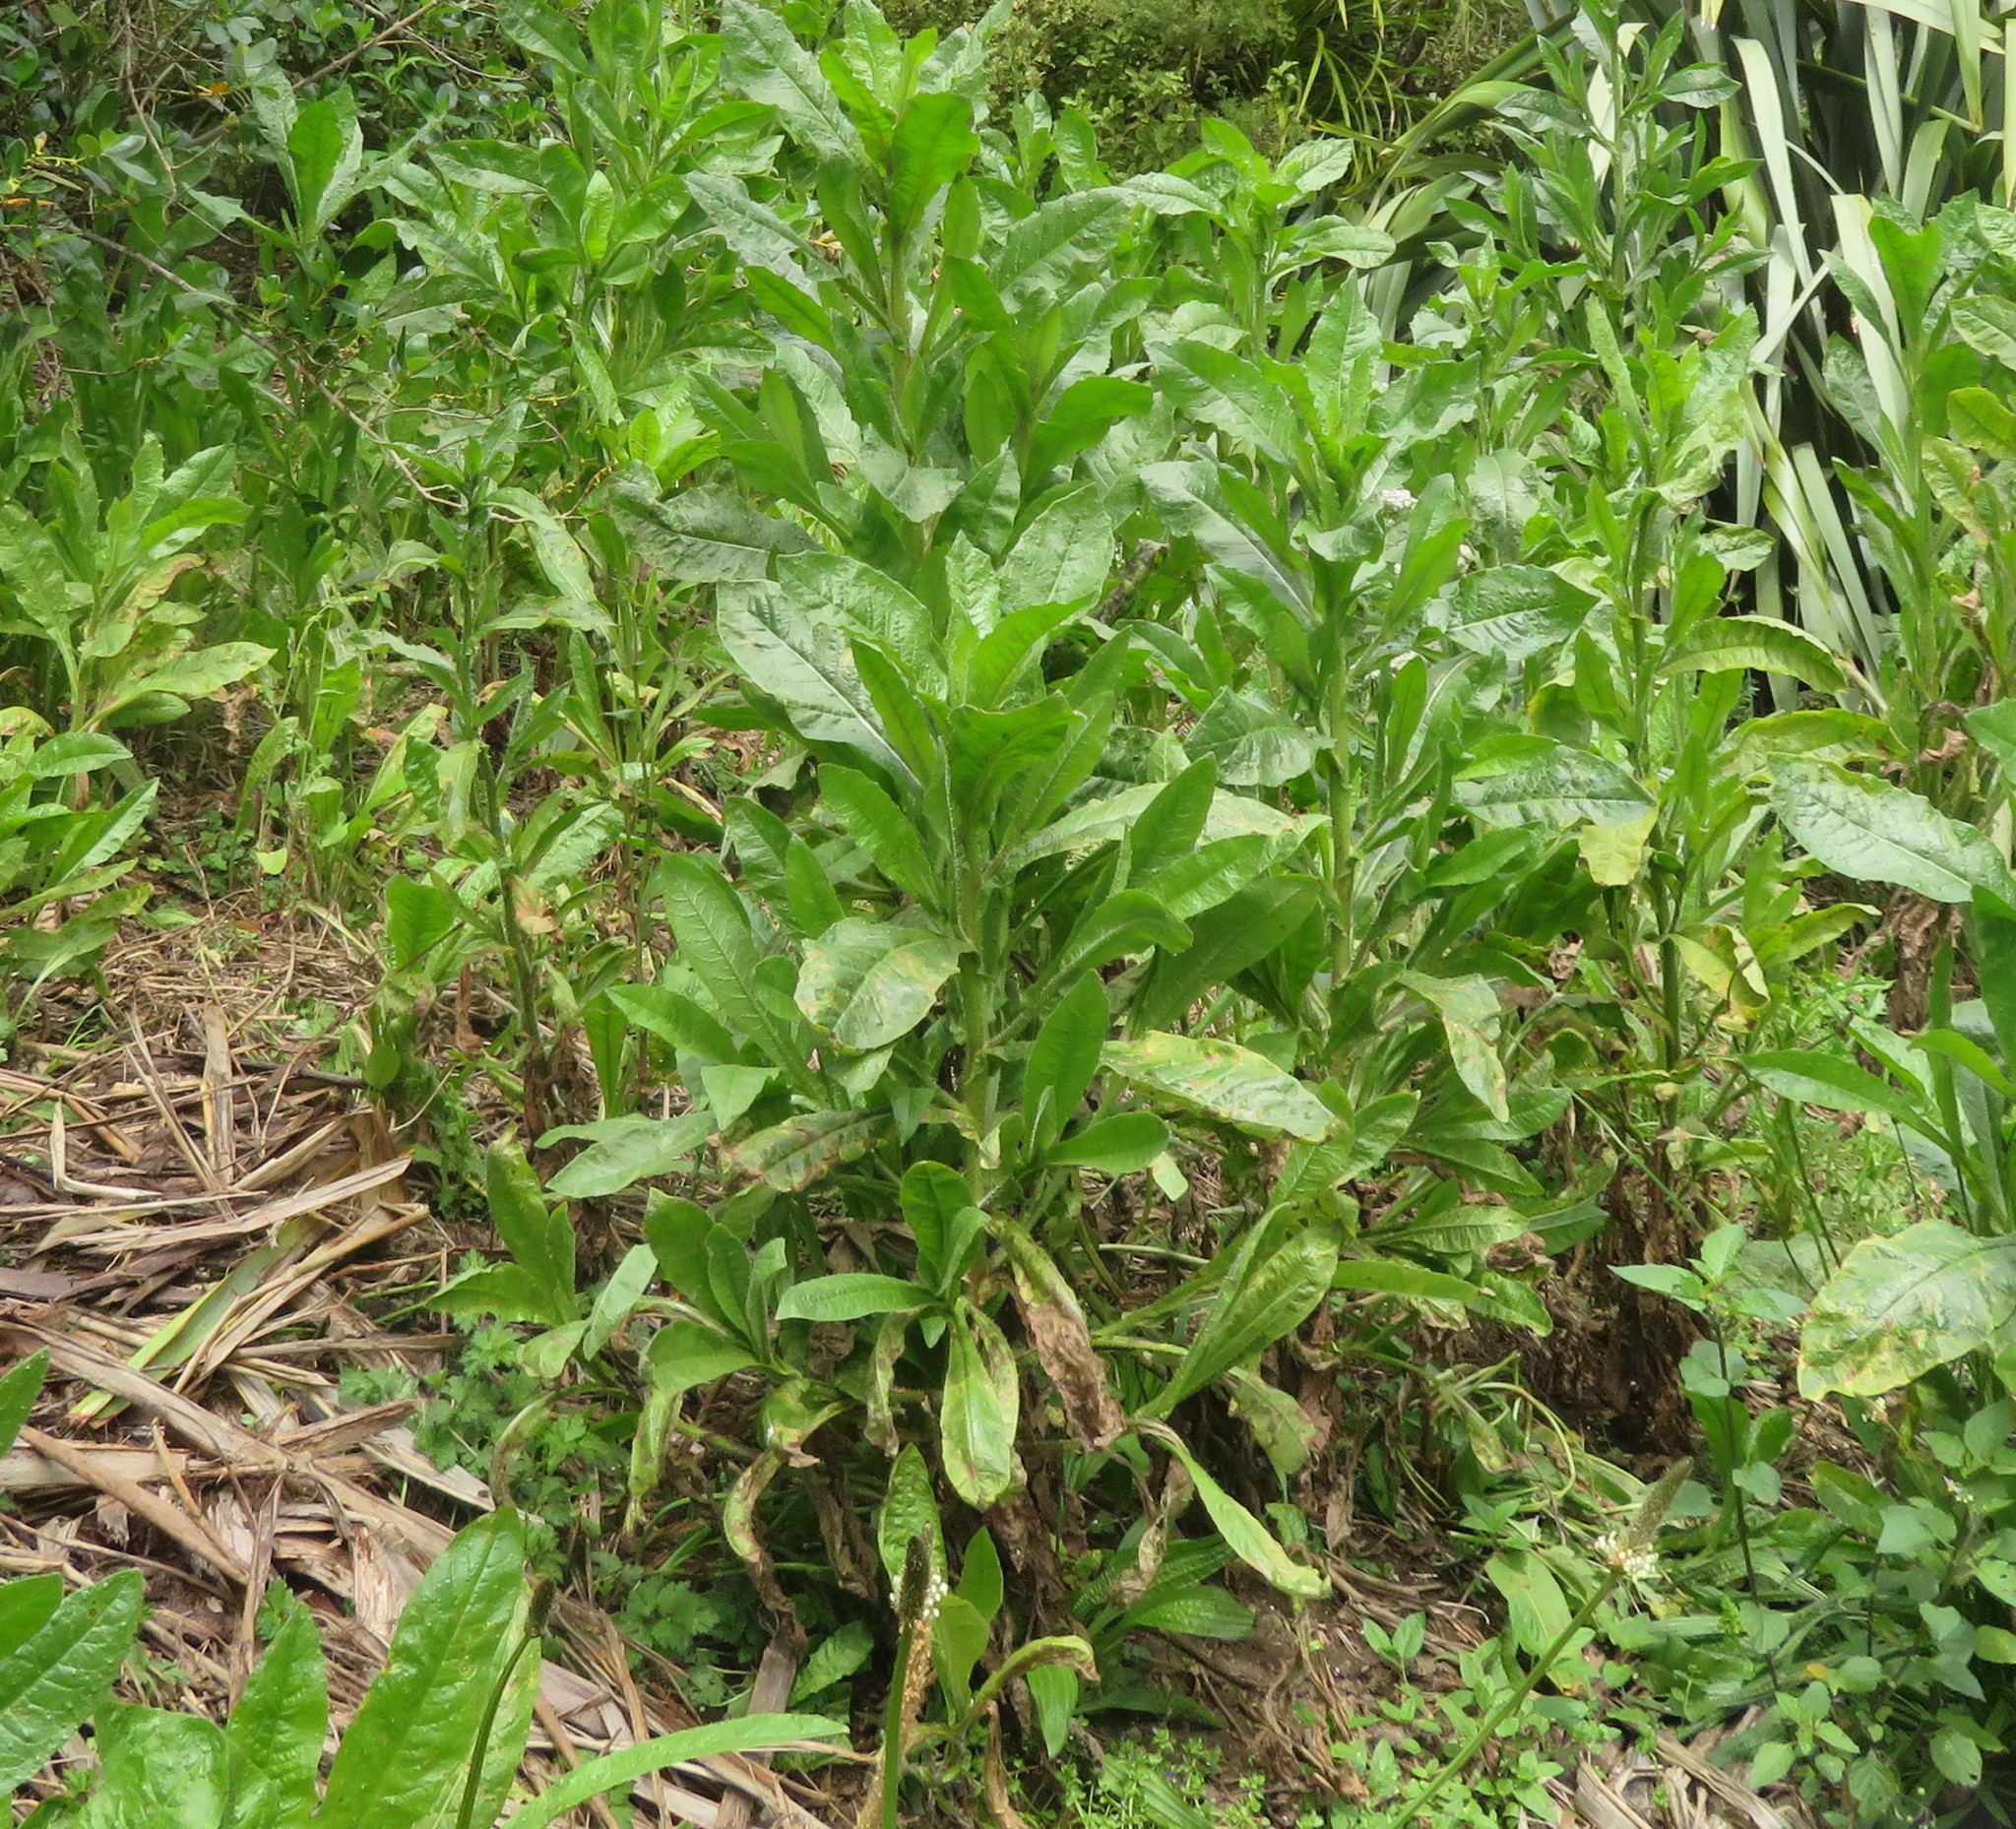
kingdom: Plantae
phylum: Tracheophyta
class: Magnoliopsida
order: Asterales
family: Asteraceae
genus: Helminthotheca
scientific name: Helminthotheca echioides
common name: Ox-tongue
